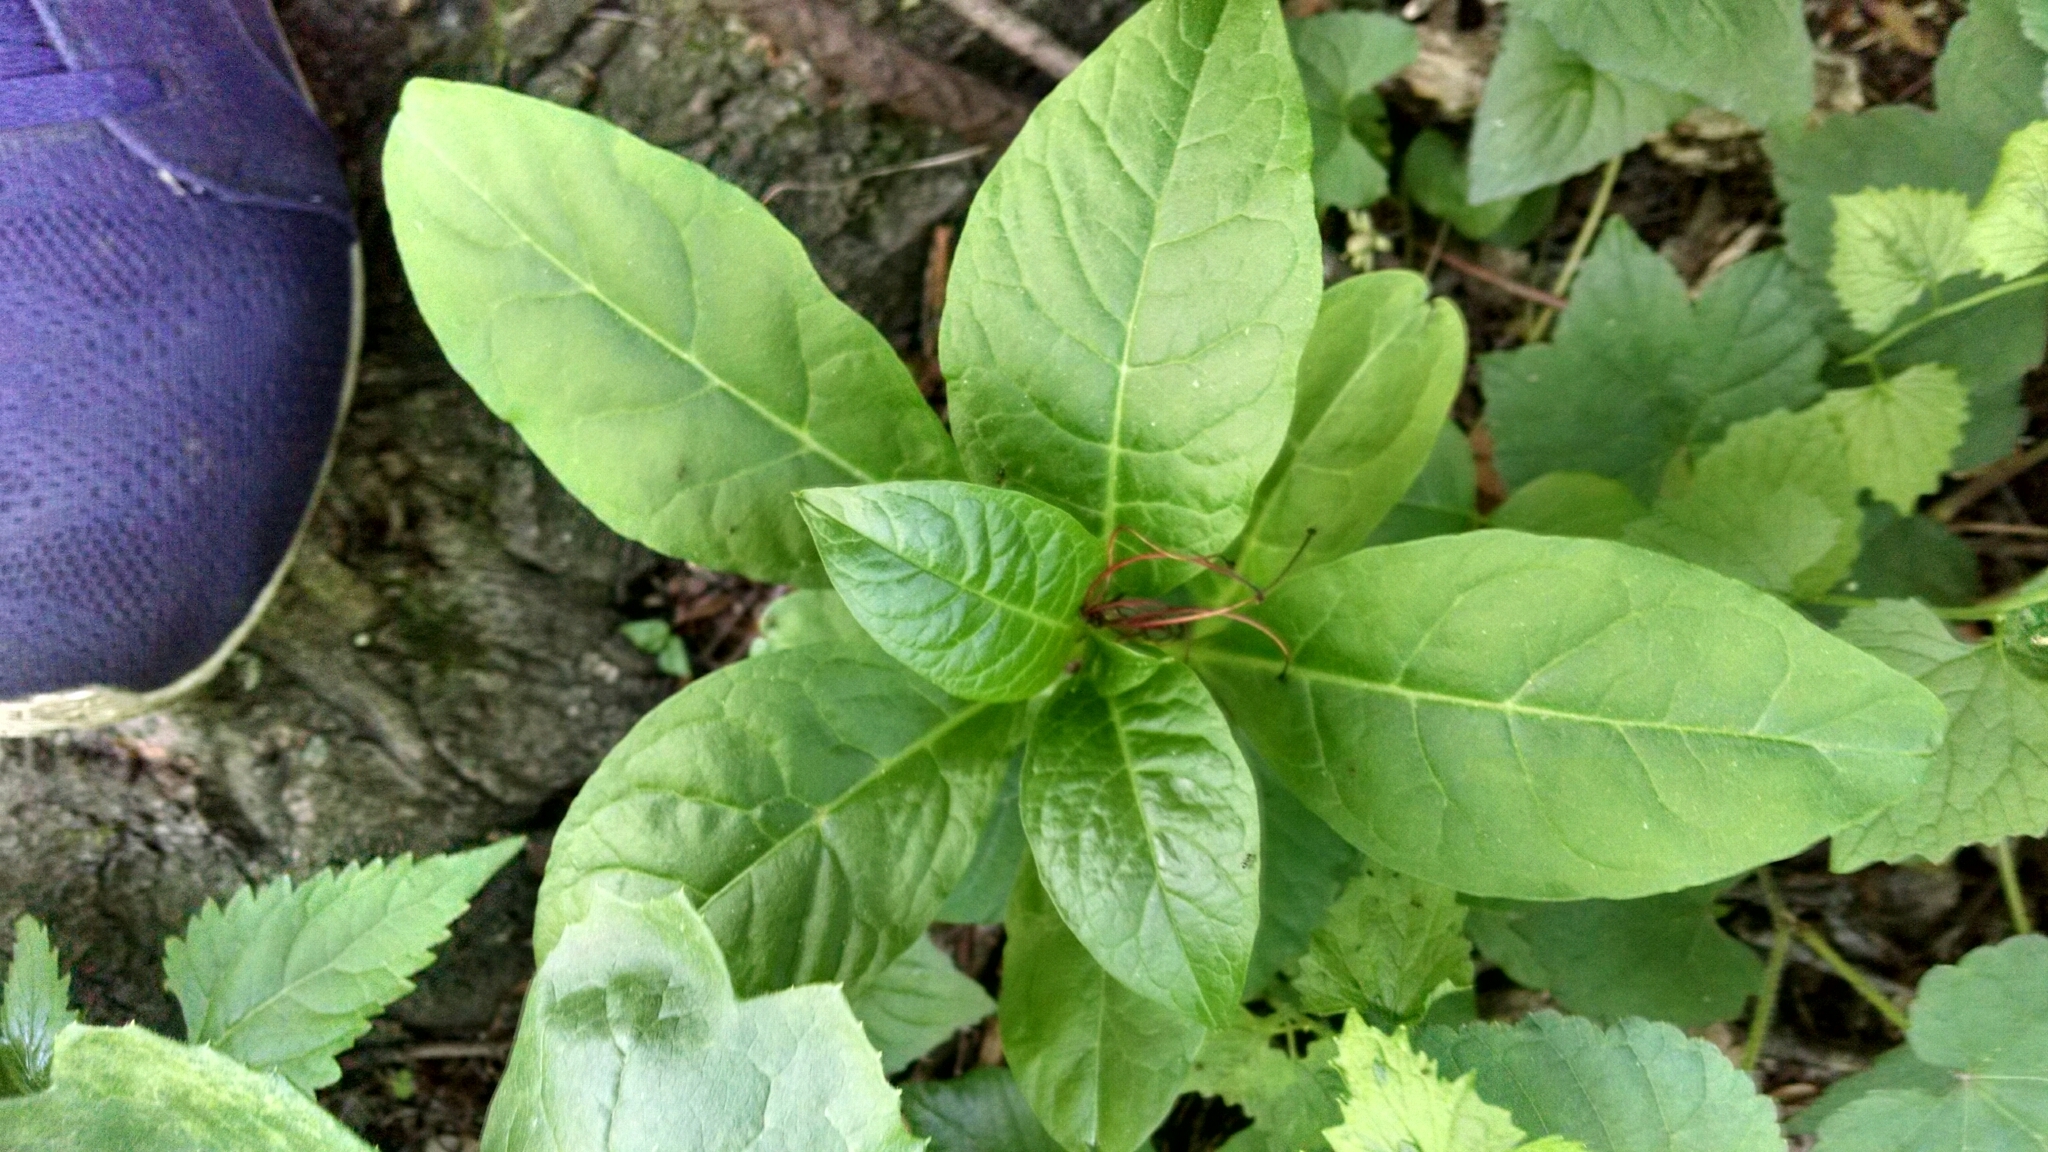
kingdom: Plantae
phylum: Tracheophyta
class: Magnoliopsida
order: Caryophyllales
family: Phytolaccaceae
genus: Phytolacca
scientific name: Phytolacca americana
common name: American pokeweed
